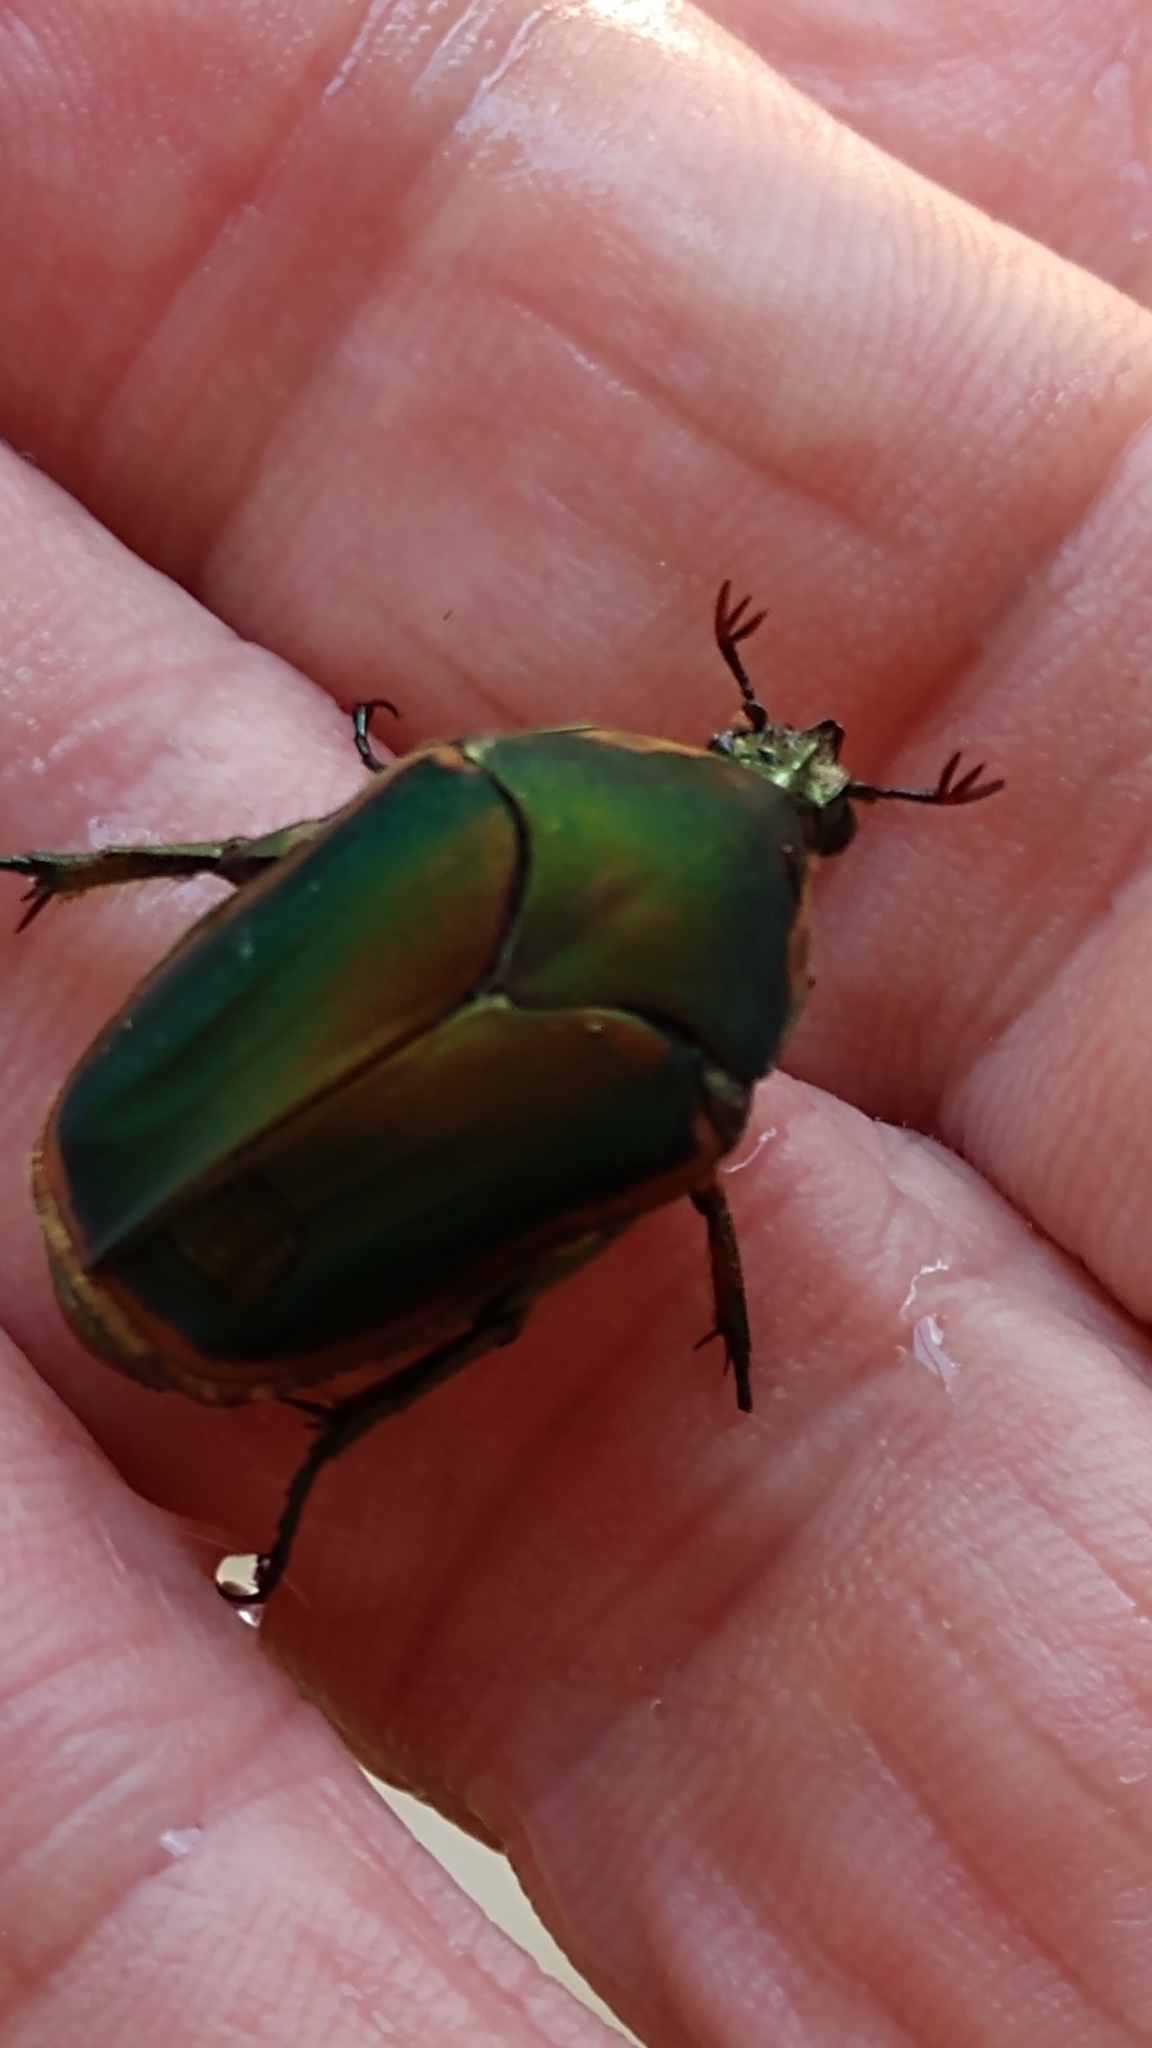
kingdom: Animalia
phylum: Arthropoda
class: Insecta
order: Coleoptera
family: Scarabaeidae
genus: Cotinis
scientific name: Cotinis nitida
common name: Common green june beetle
